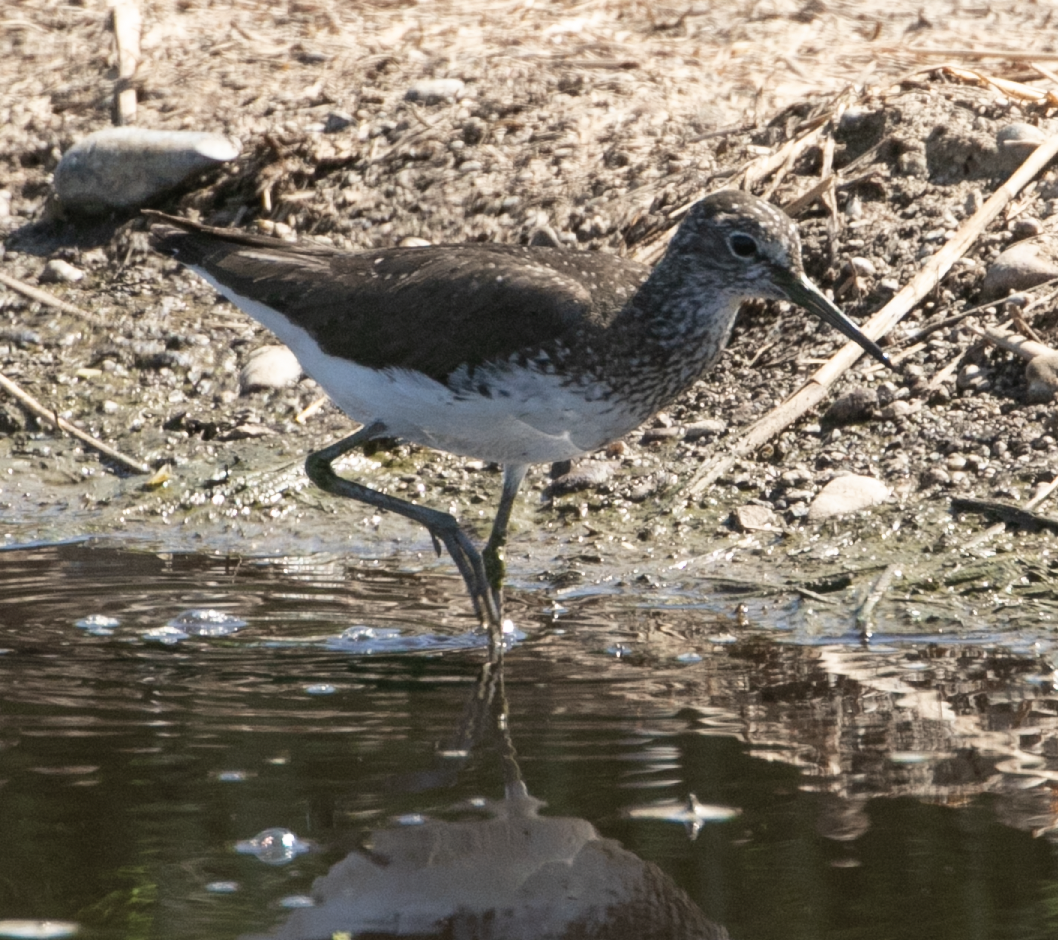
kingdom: Animalia
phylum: Chordata
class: Aves
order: Charadriiformes
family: Scolopacidae
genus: Tringa
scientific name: Tringa ochropus
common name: Green sandpiper
